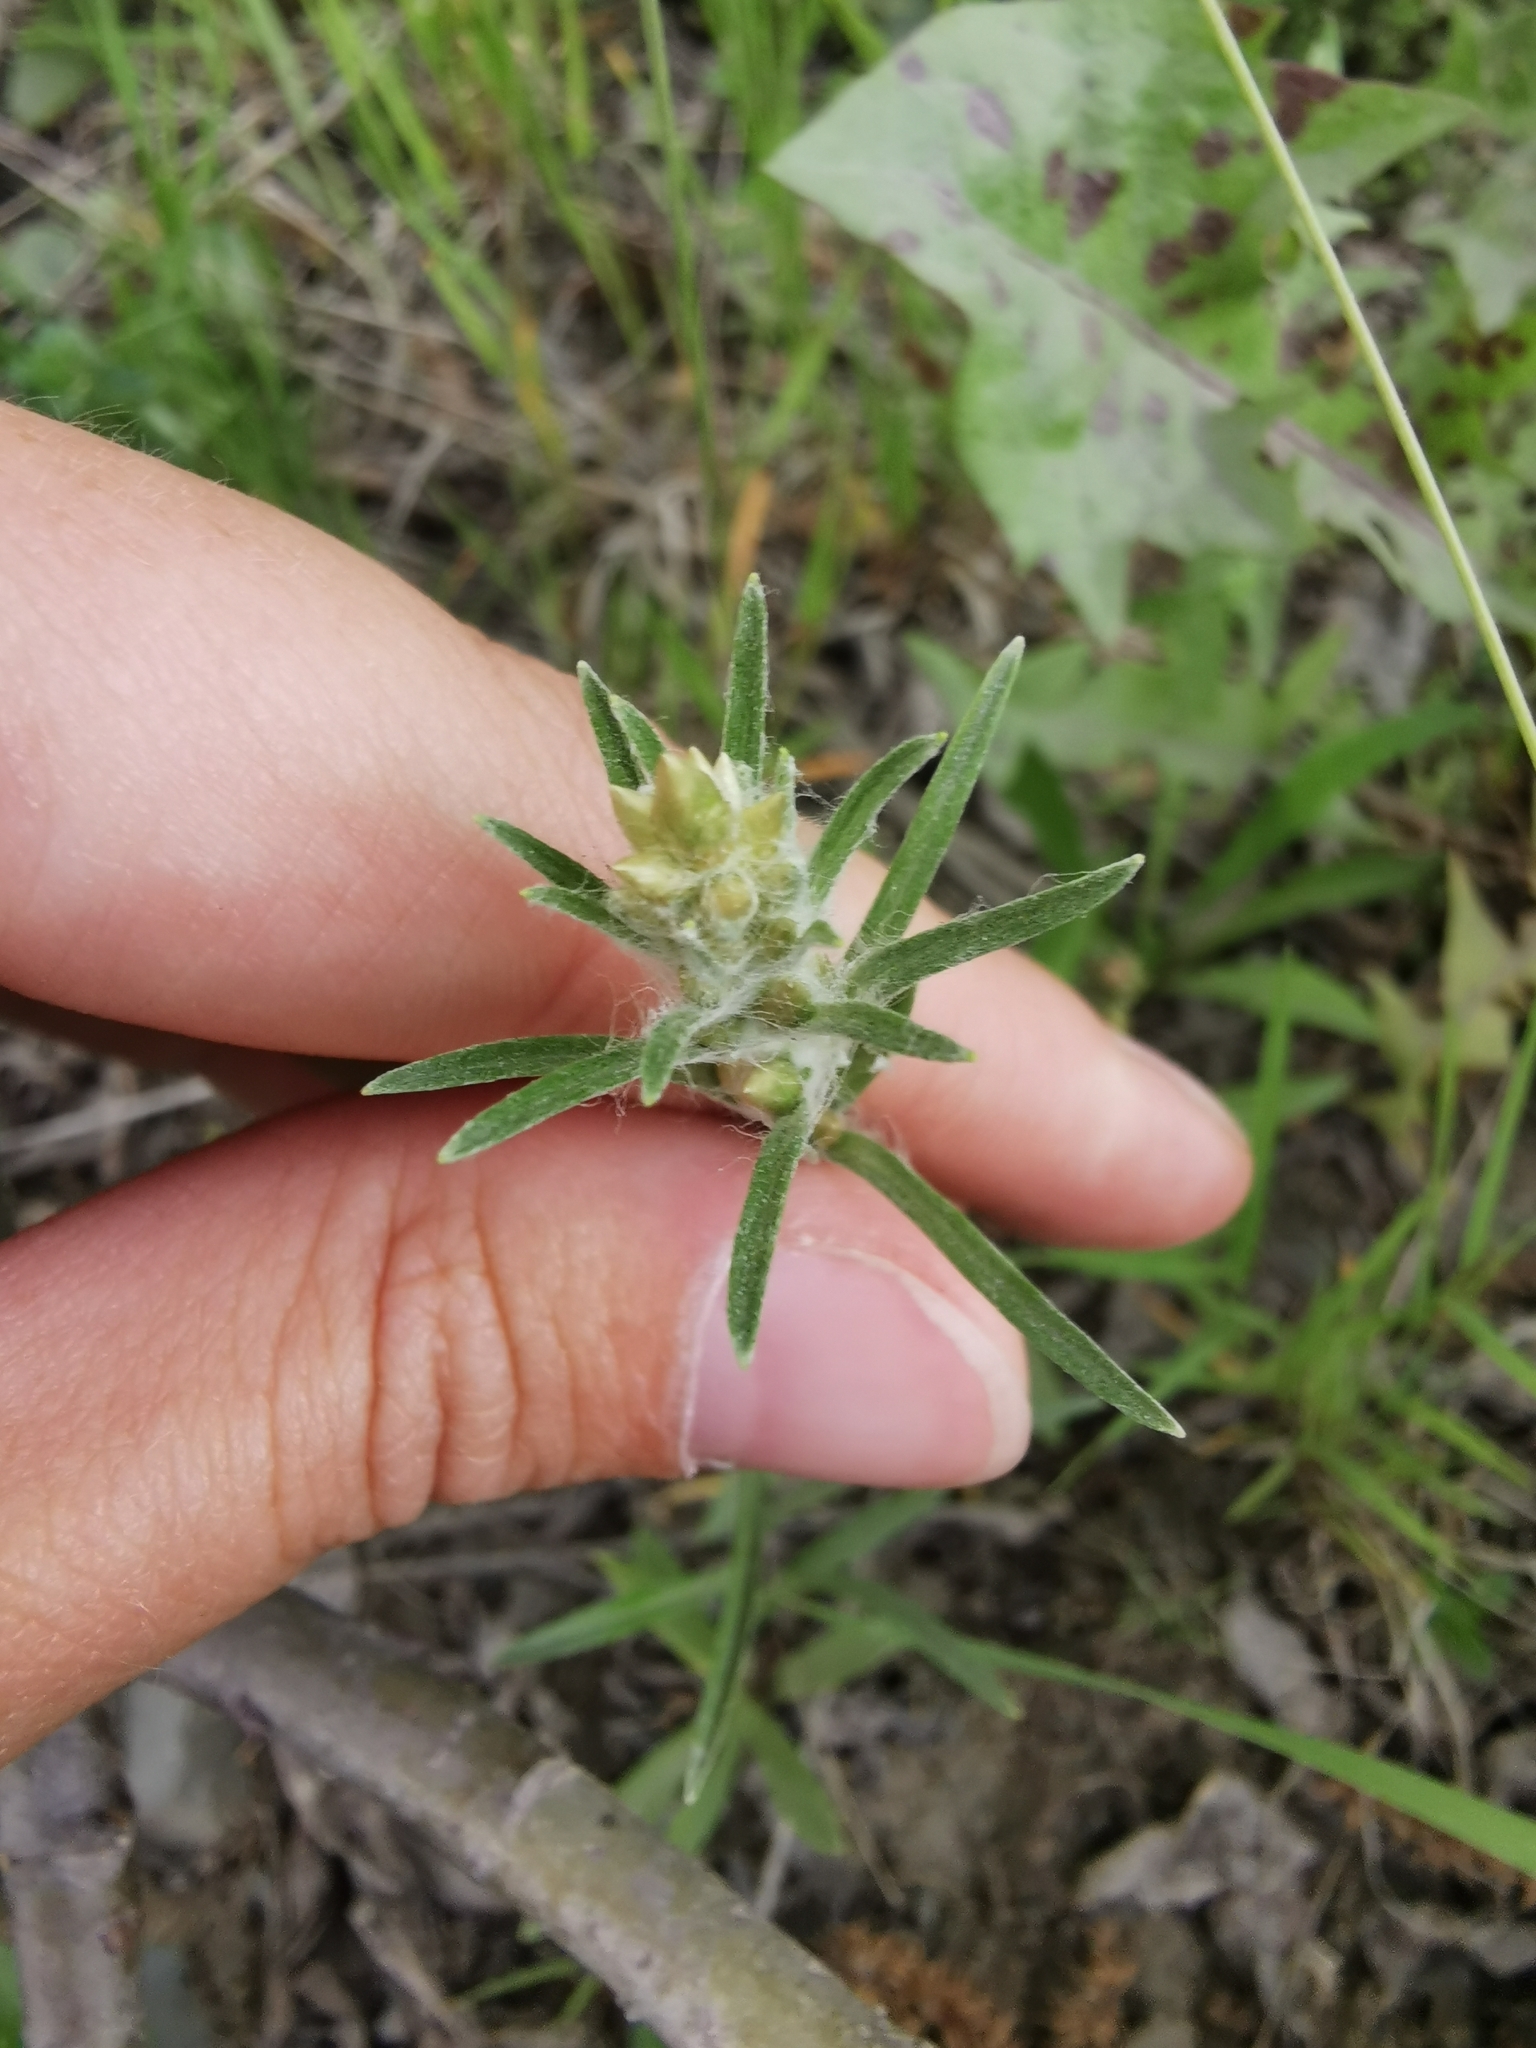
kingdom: Plantae
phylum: Tracheophyta
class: Magnoliopsida
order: Asterales
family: Asteraceae
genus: Omalotheca
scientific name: Omalotheca sylvatica
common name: Heath cudweed
